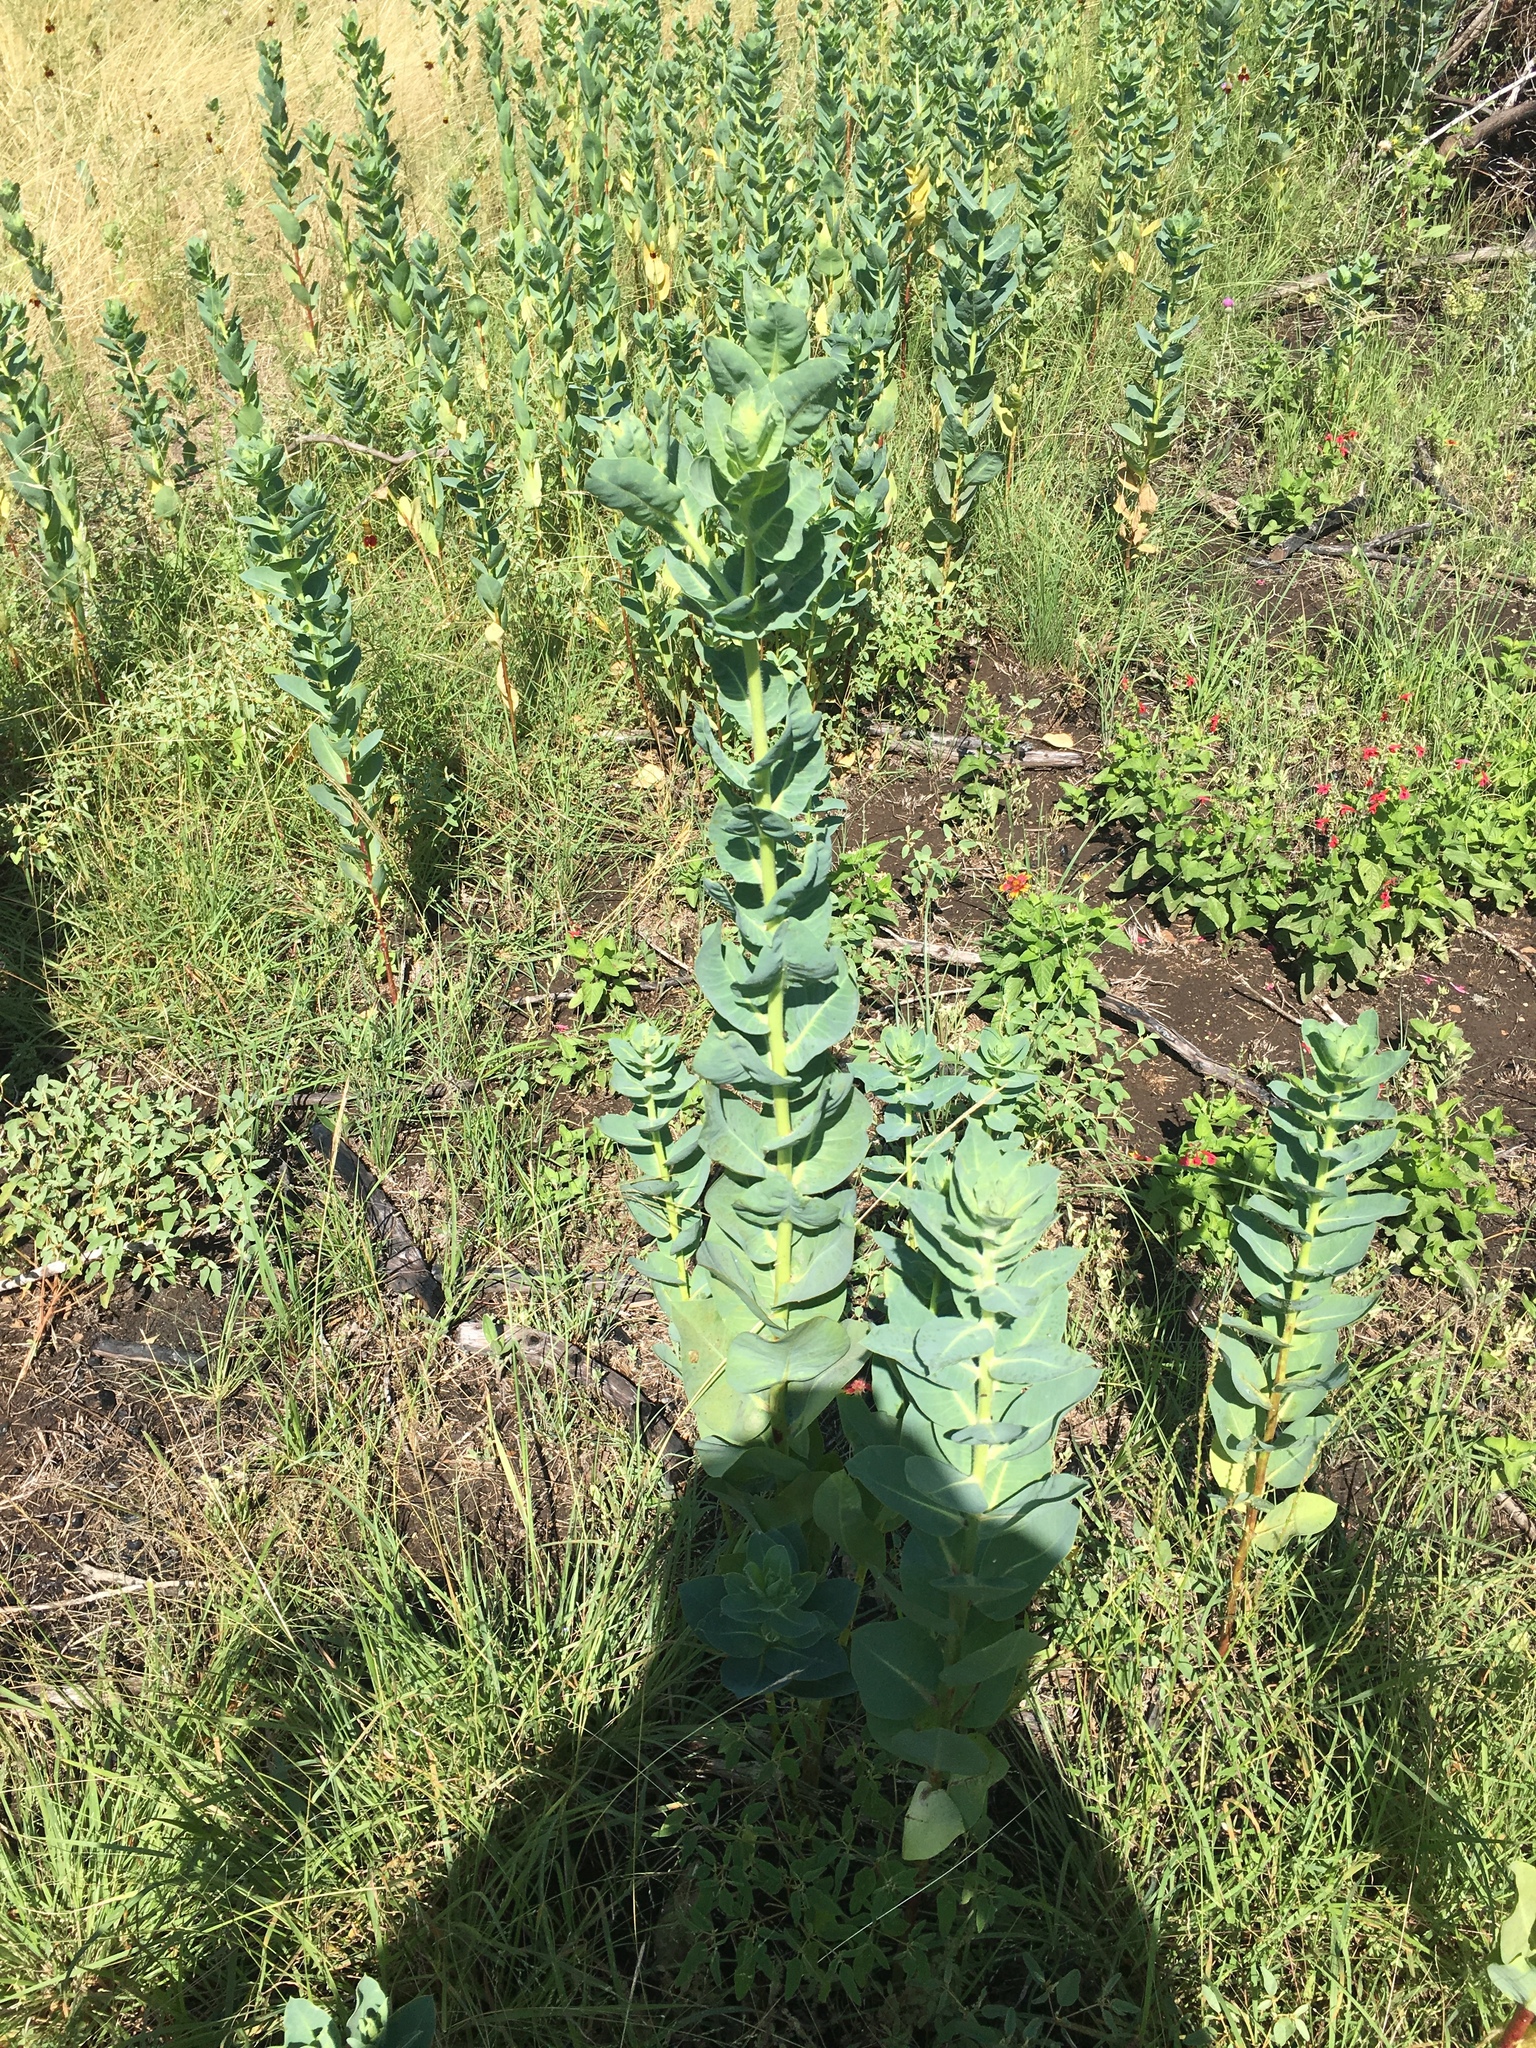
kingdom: Plantae
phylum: Tracheophyta
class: Magnoliopsida
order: Malpighiales
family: Euphorbiaceae
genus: Euphorbia
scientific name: Euphorbia marginata
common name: Ghostweed
